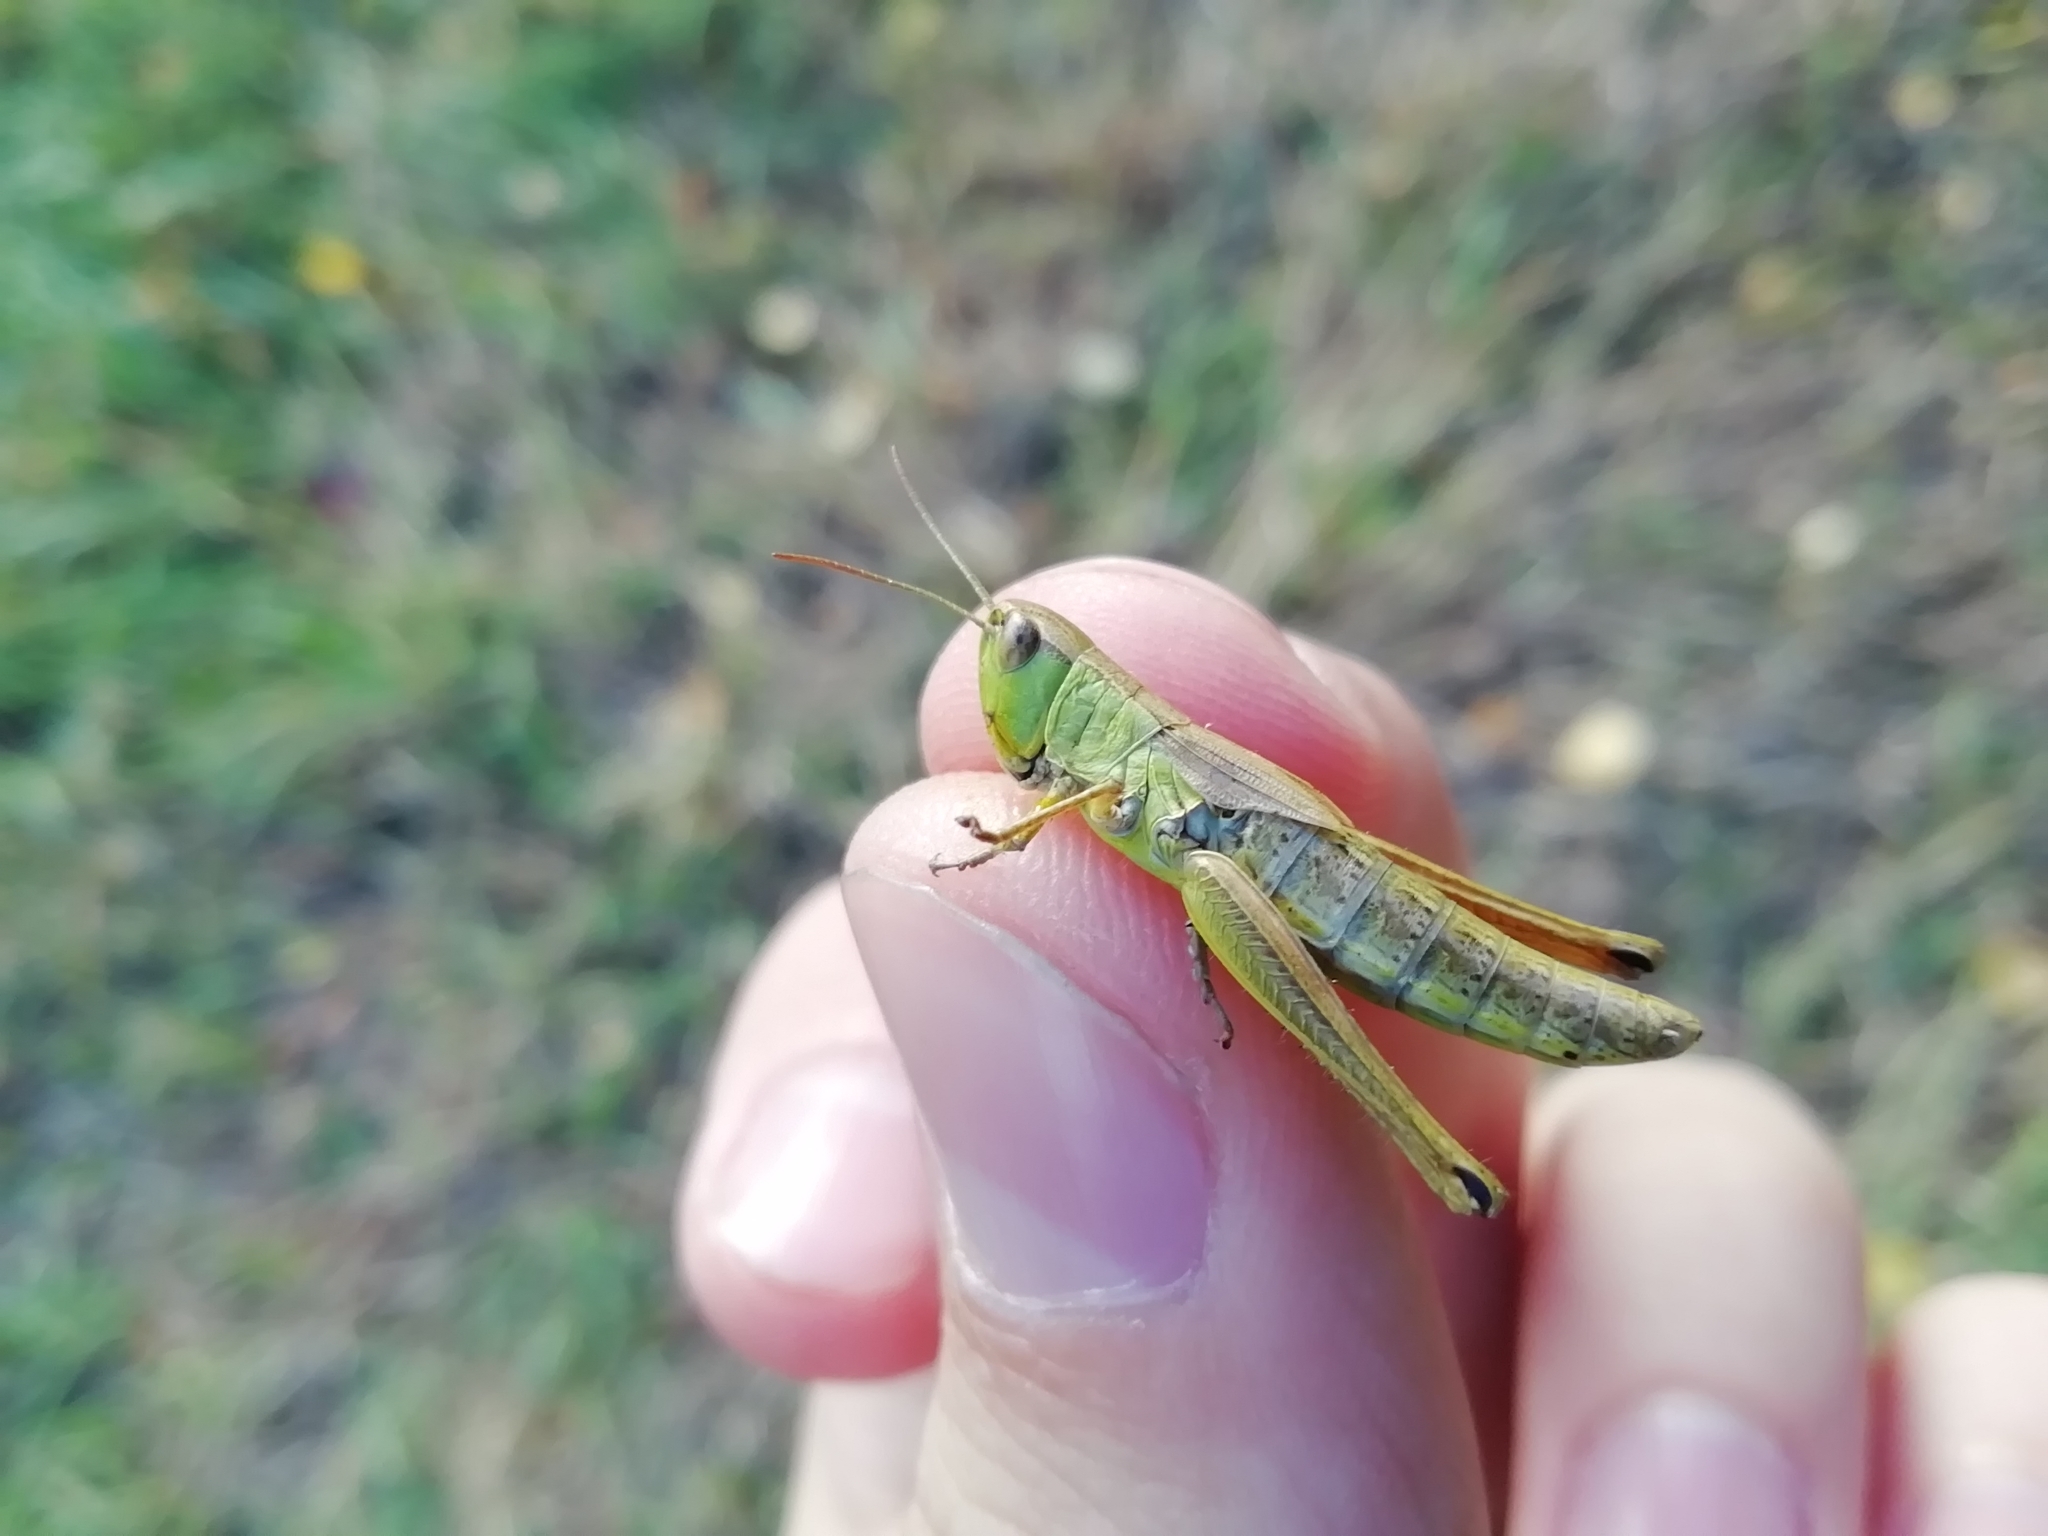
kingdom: Animalia
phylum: Arthropoda
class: Insecta
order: Orthoptera
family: Acrididae
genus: Pseudochorthippus
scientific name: Pseudochorthippus parallelus
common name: Meadow grasshopper
